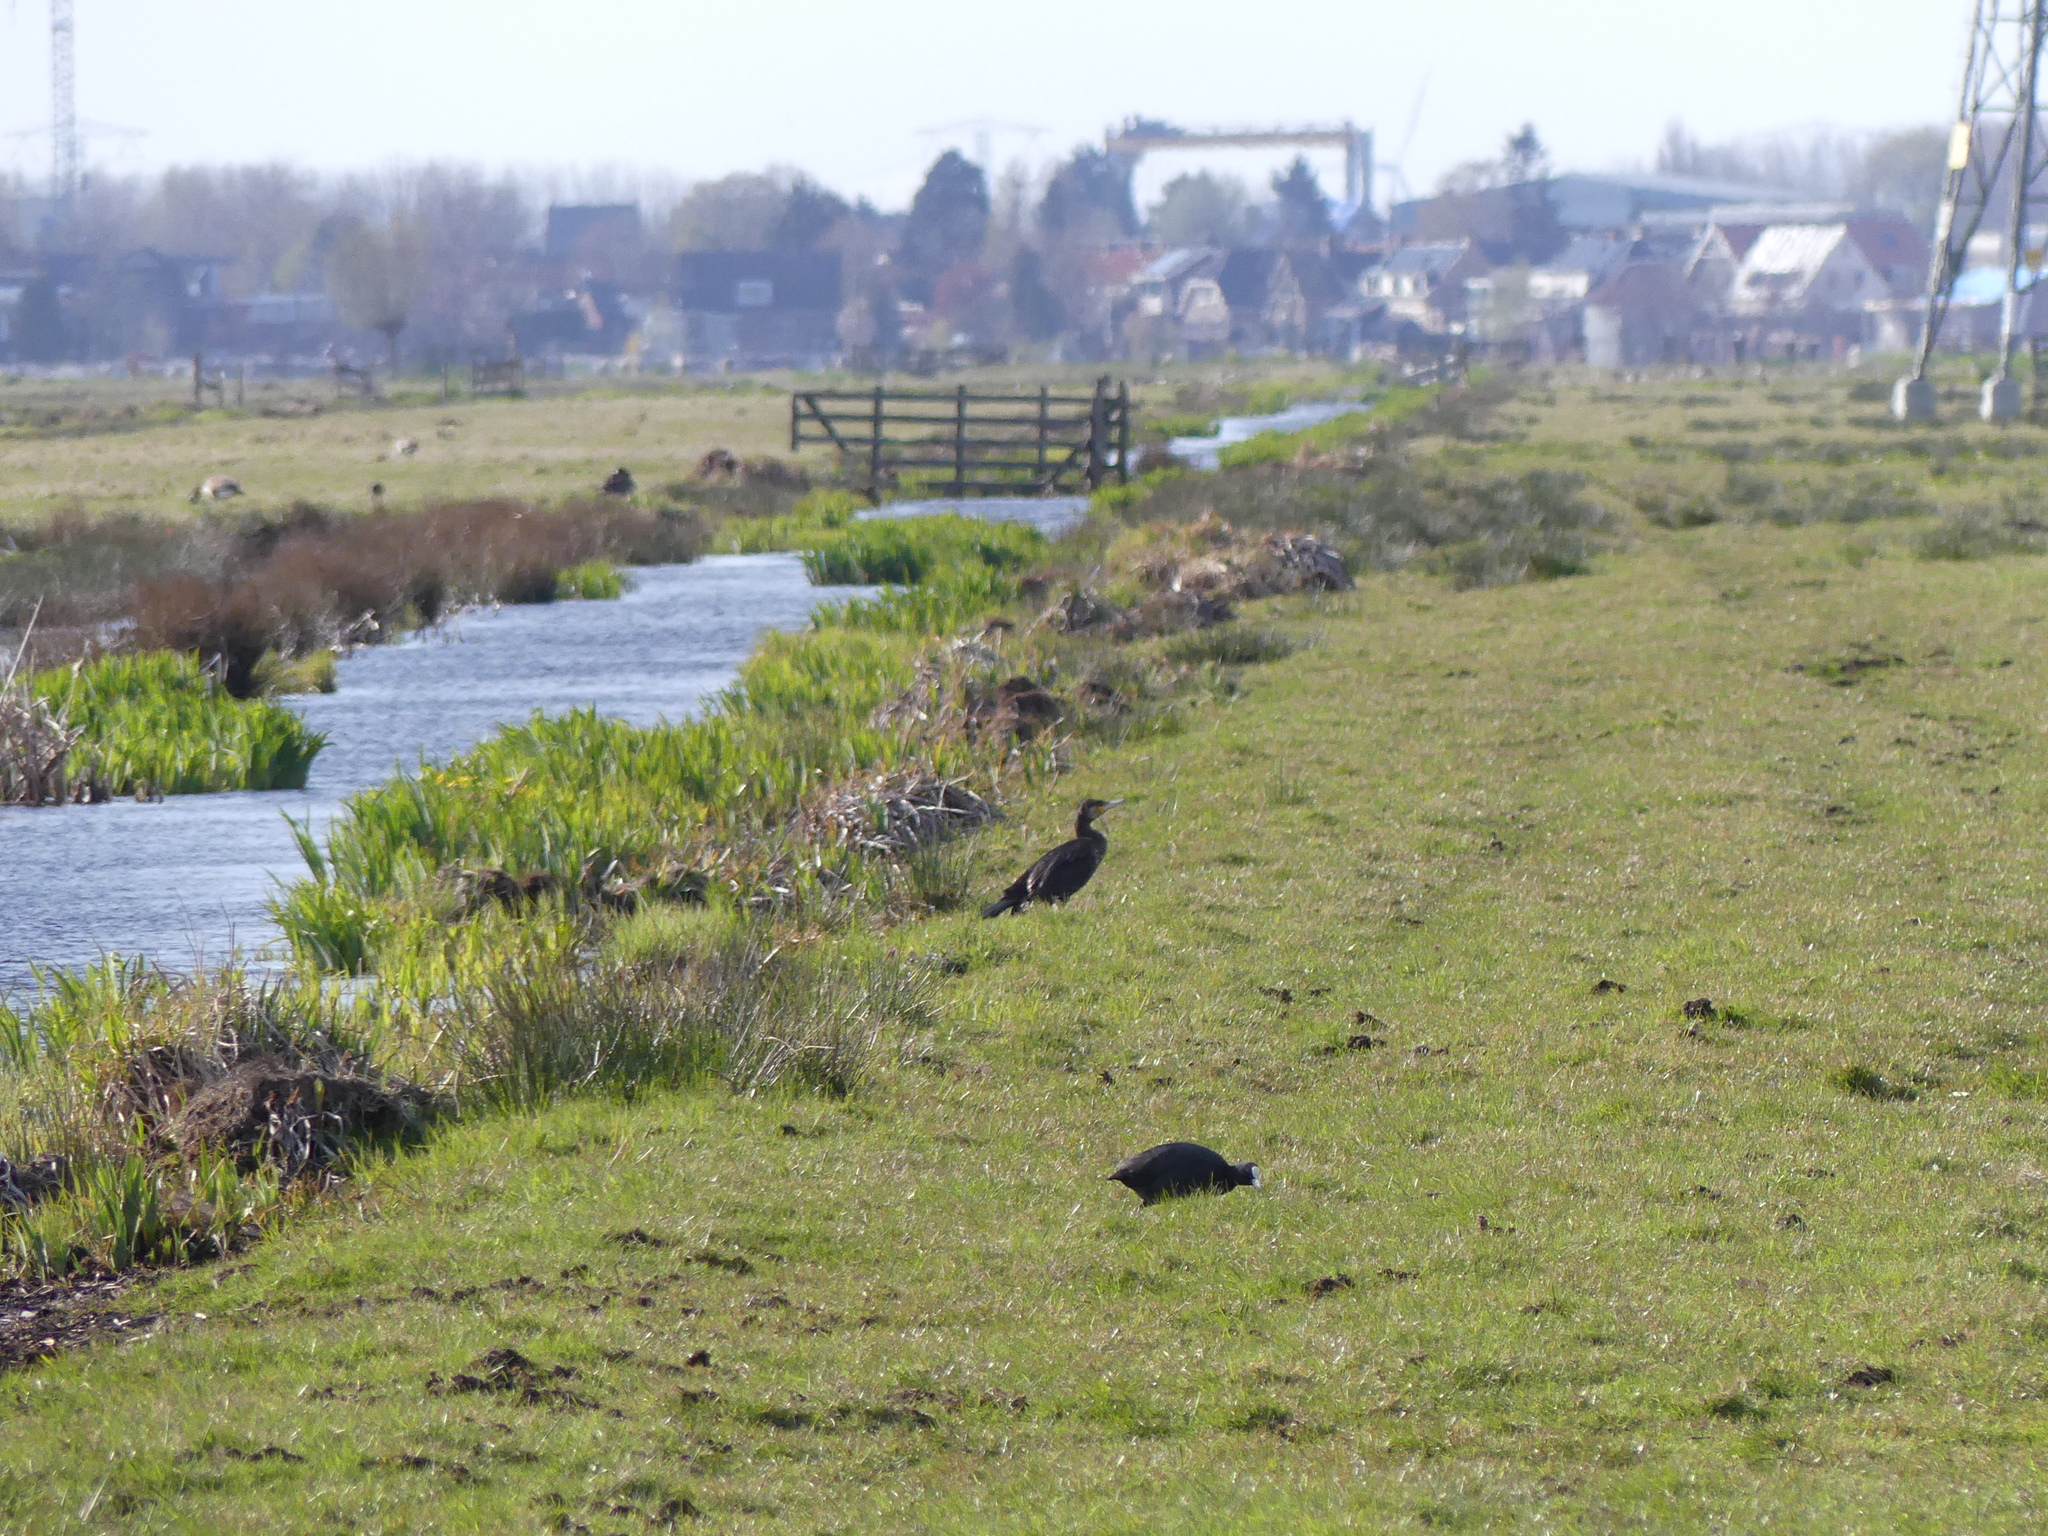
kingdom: Animalia
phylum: Chordata
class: Aves
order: Suliformes
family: Phalacrocoracidae
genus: Phalacrocorax
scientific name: Phalacrocorax carbo
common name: Great cormorant
